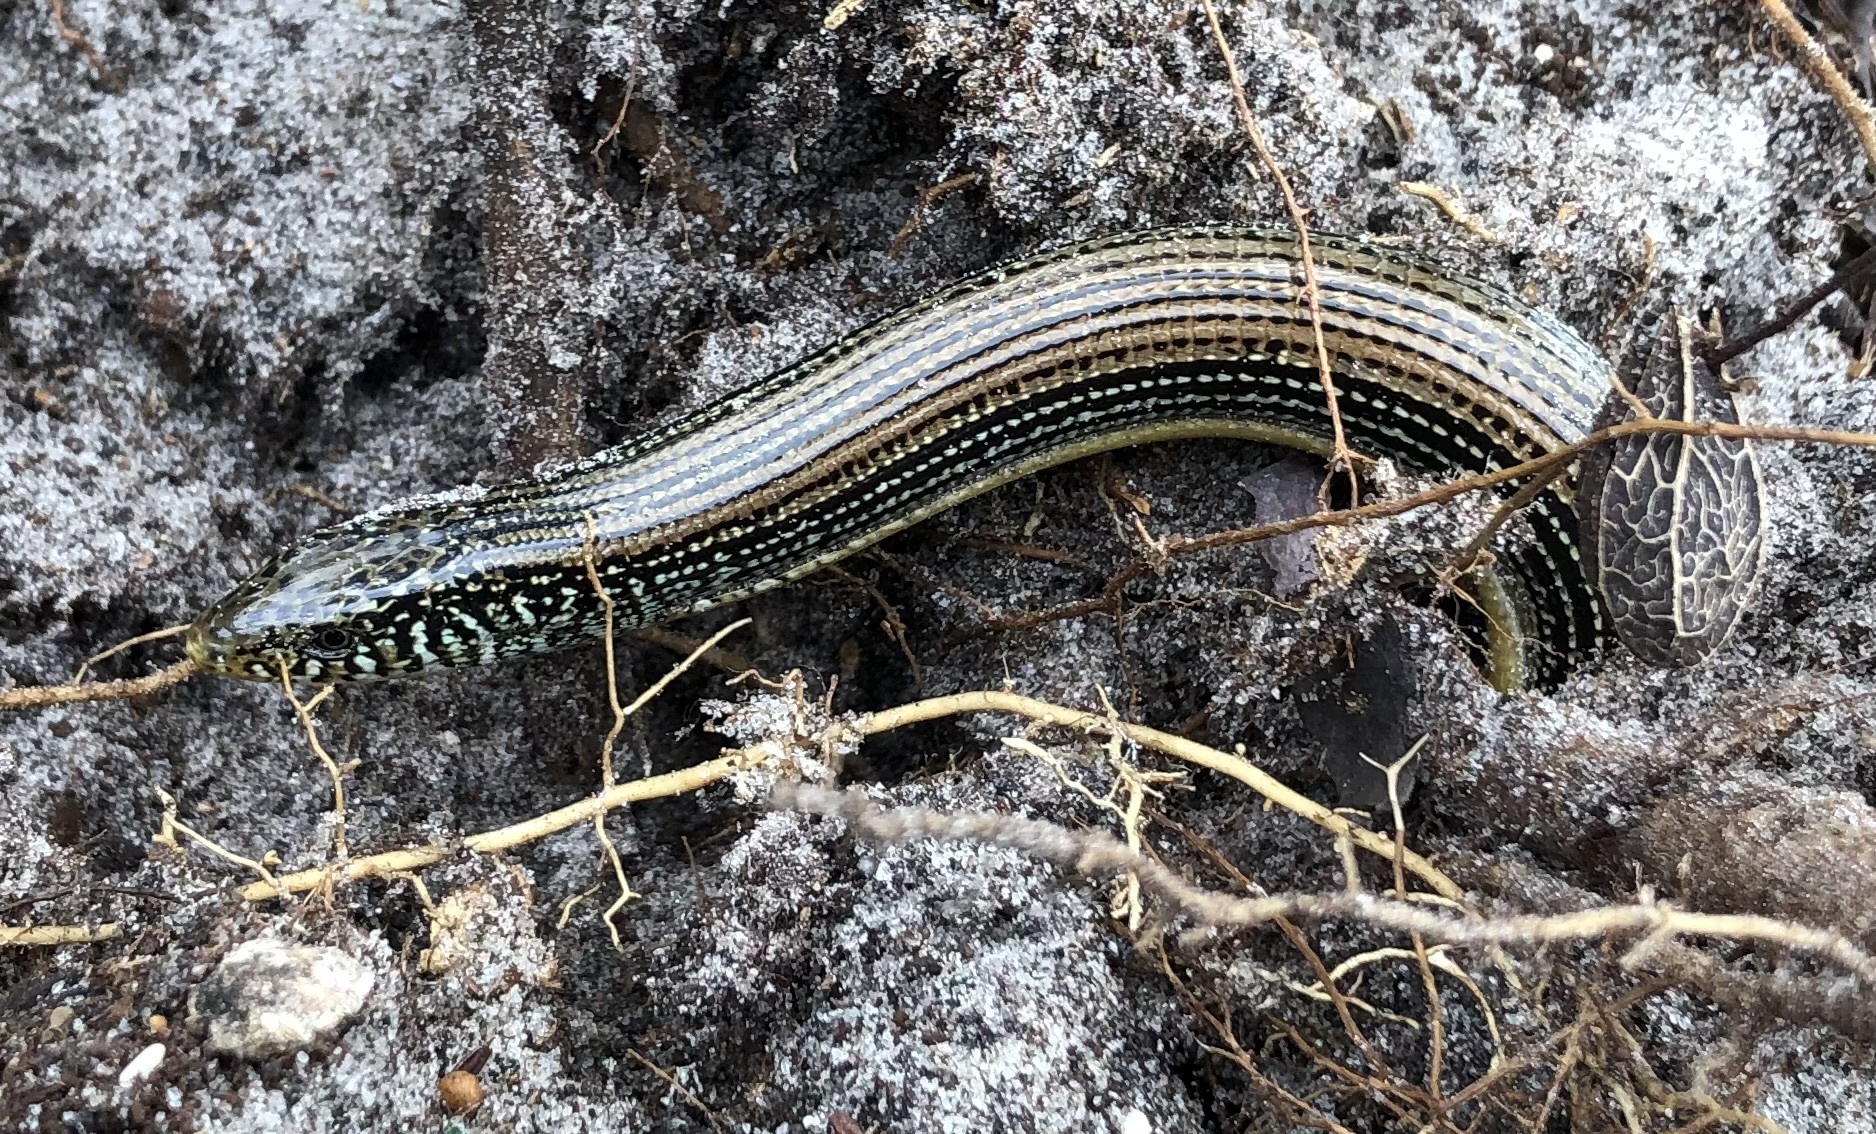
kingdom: Animalia
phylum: Chordata
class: Squamata
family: Anguidae
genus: Ophisaurus
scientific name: Ophisaurus ventralis
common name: Eastern glass lizard
